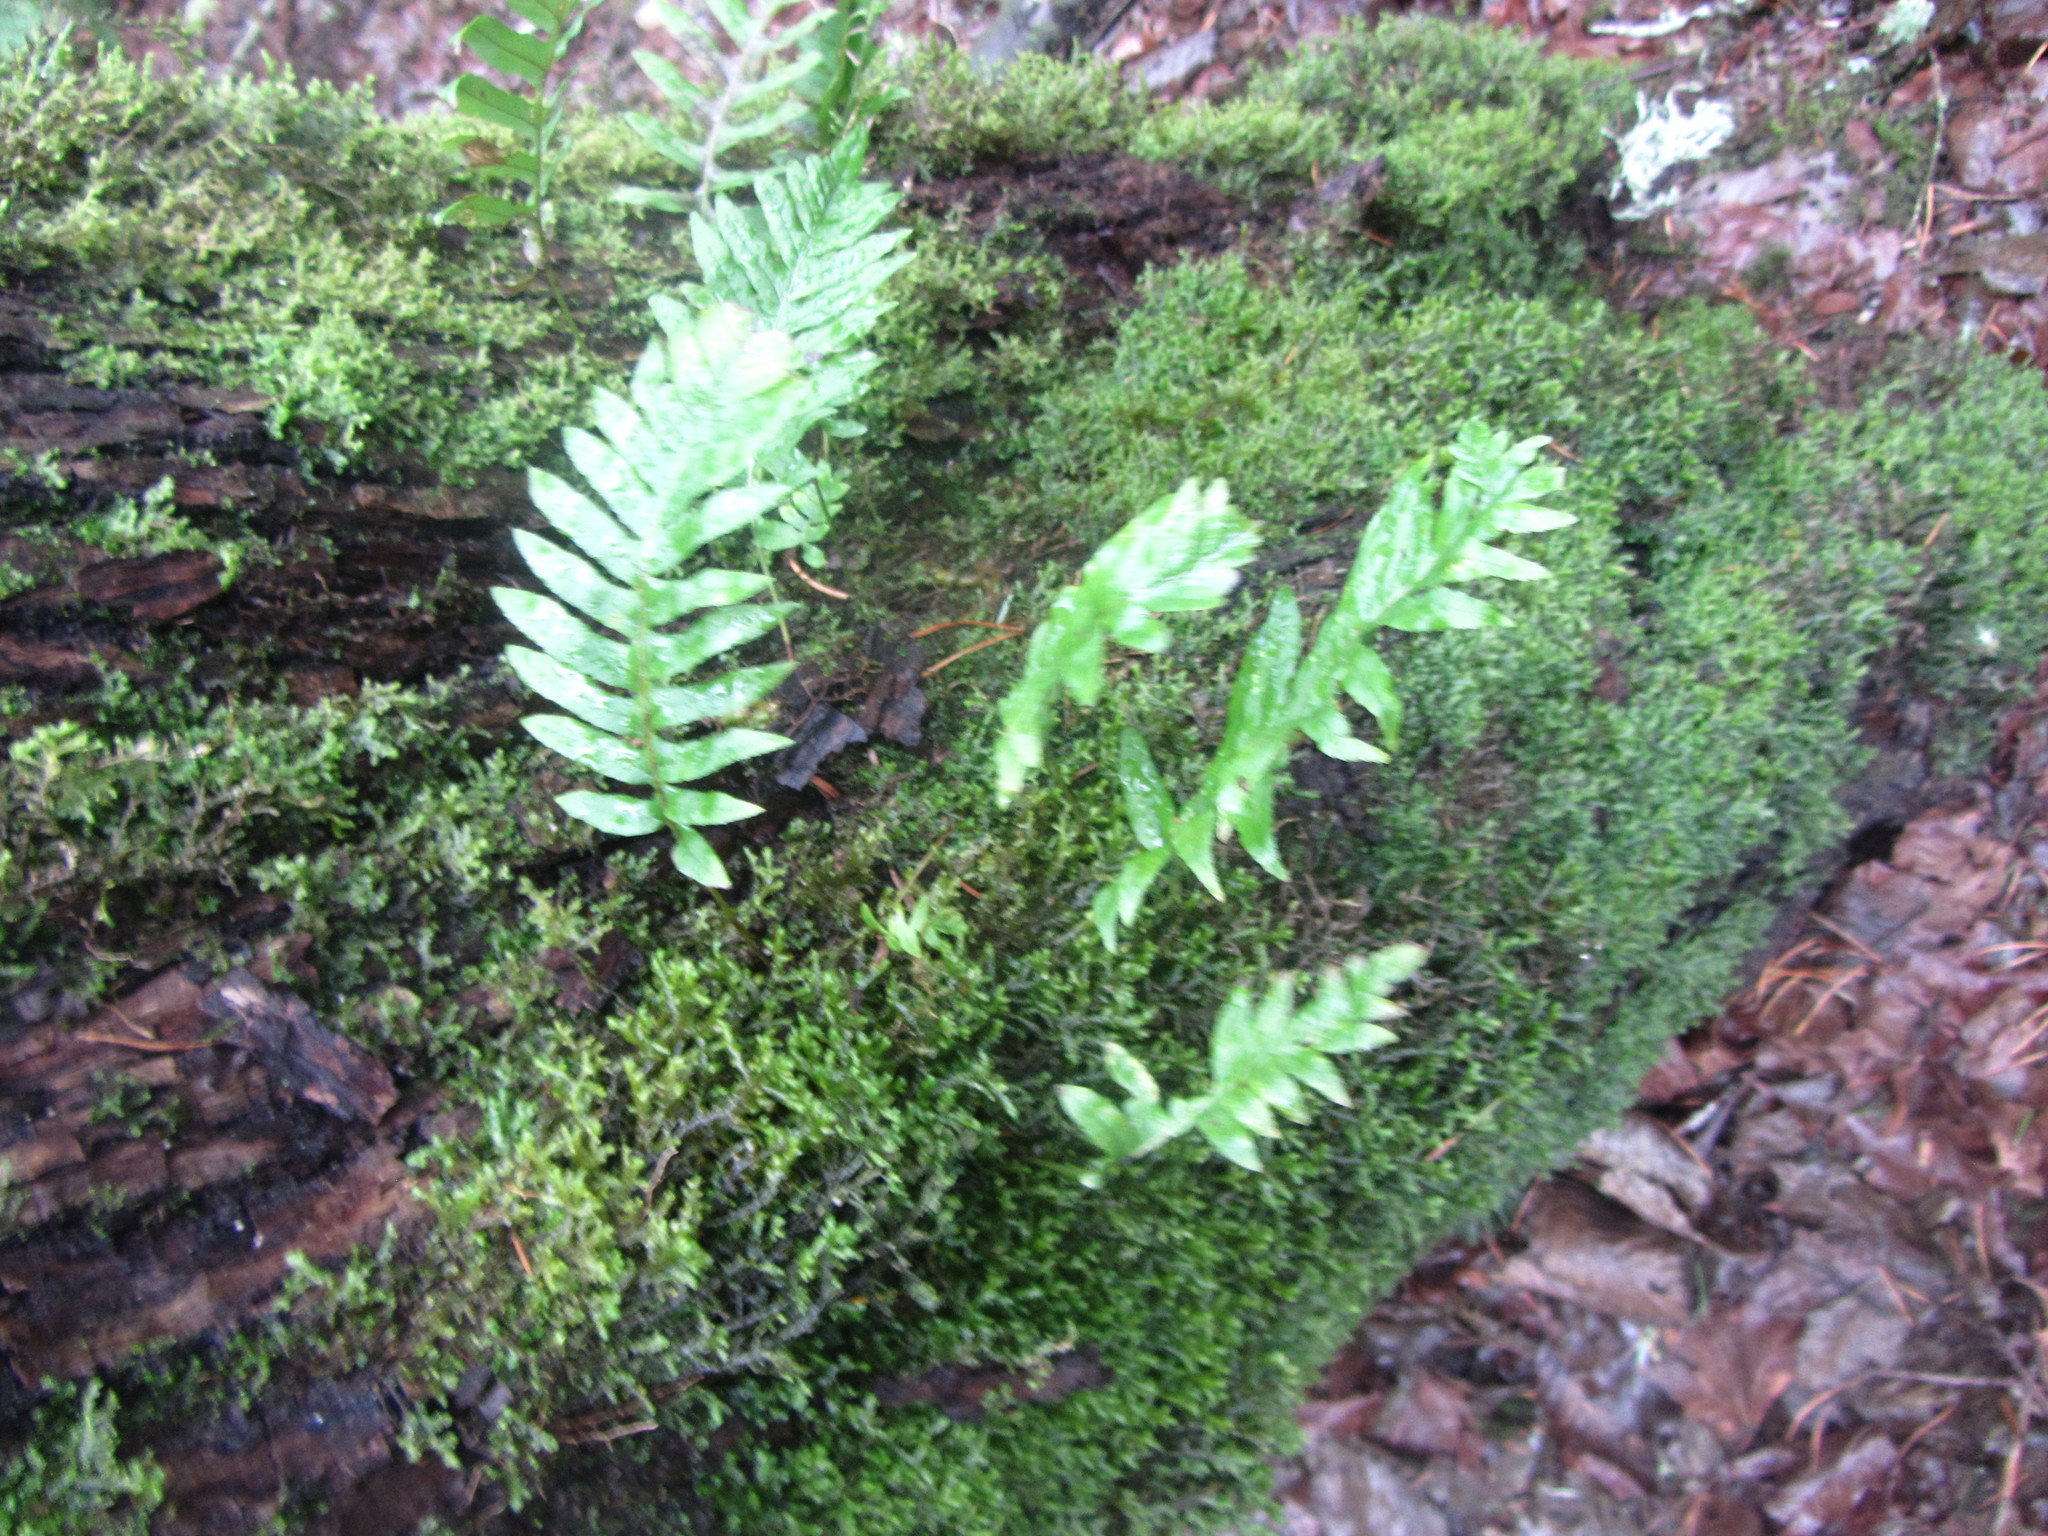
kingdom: Plantae
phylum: Tracheophyta
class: Polypodiopsida
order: Polypodiales
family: Polypodiaceae
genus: Polypodium
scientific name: Polypodium glycyrrhiza
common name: Licorice fern
